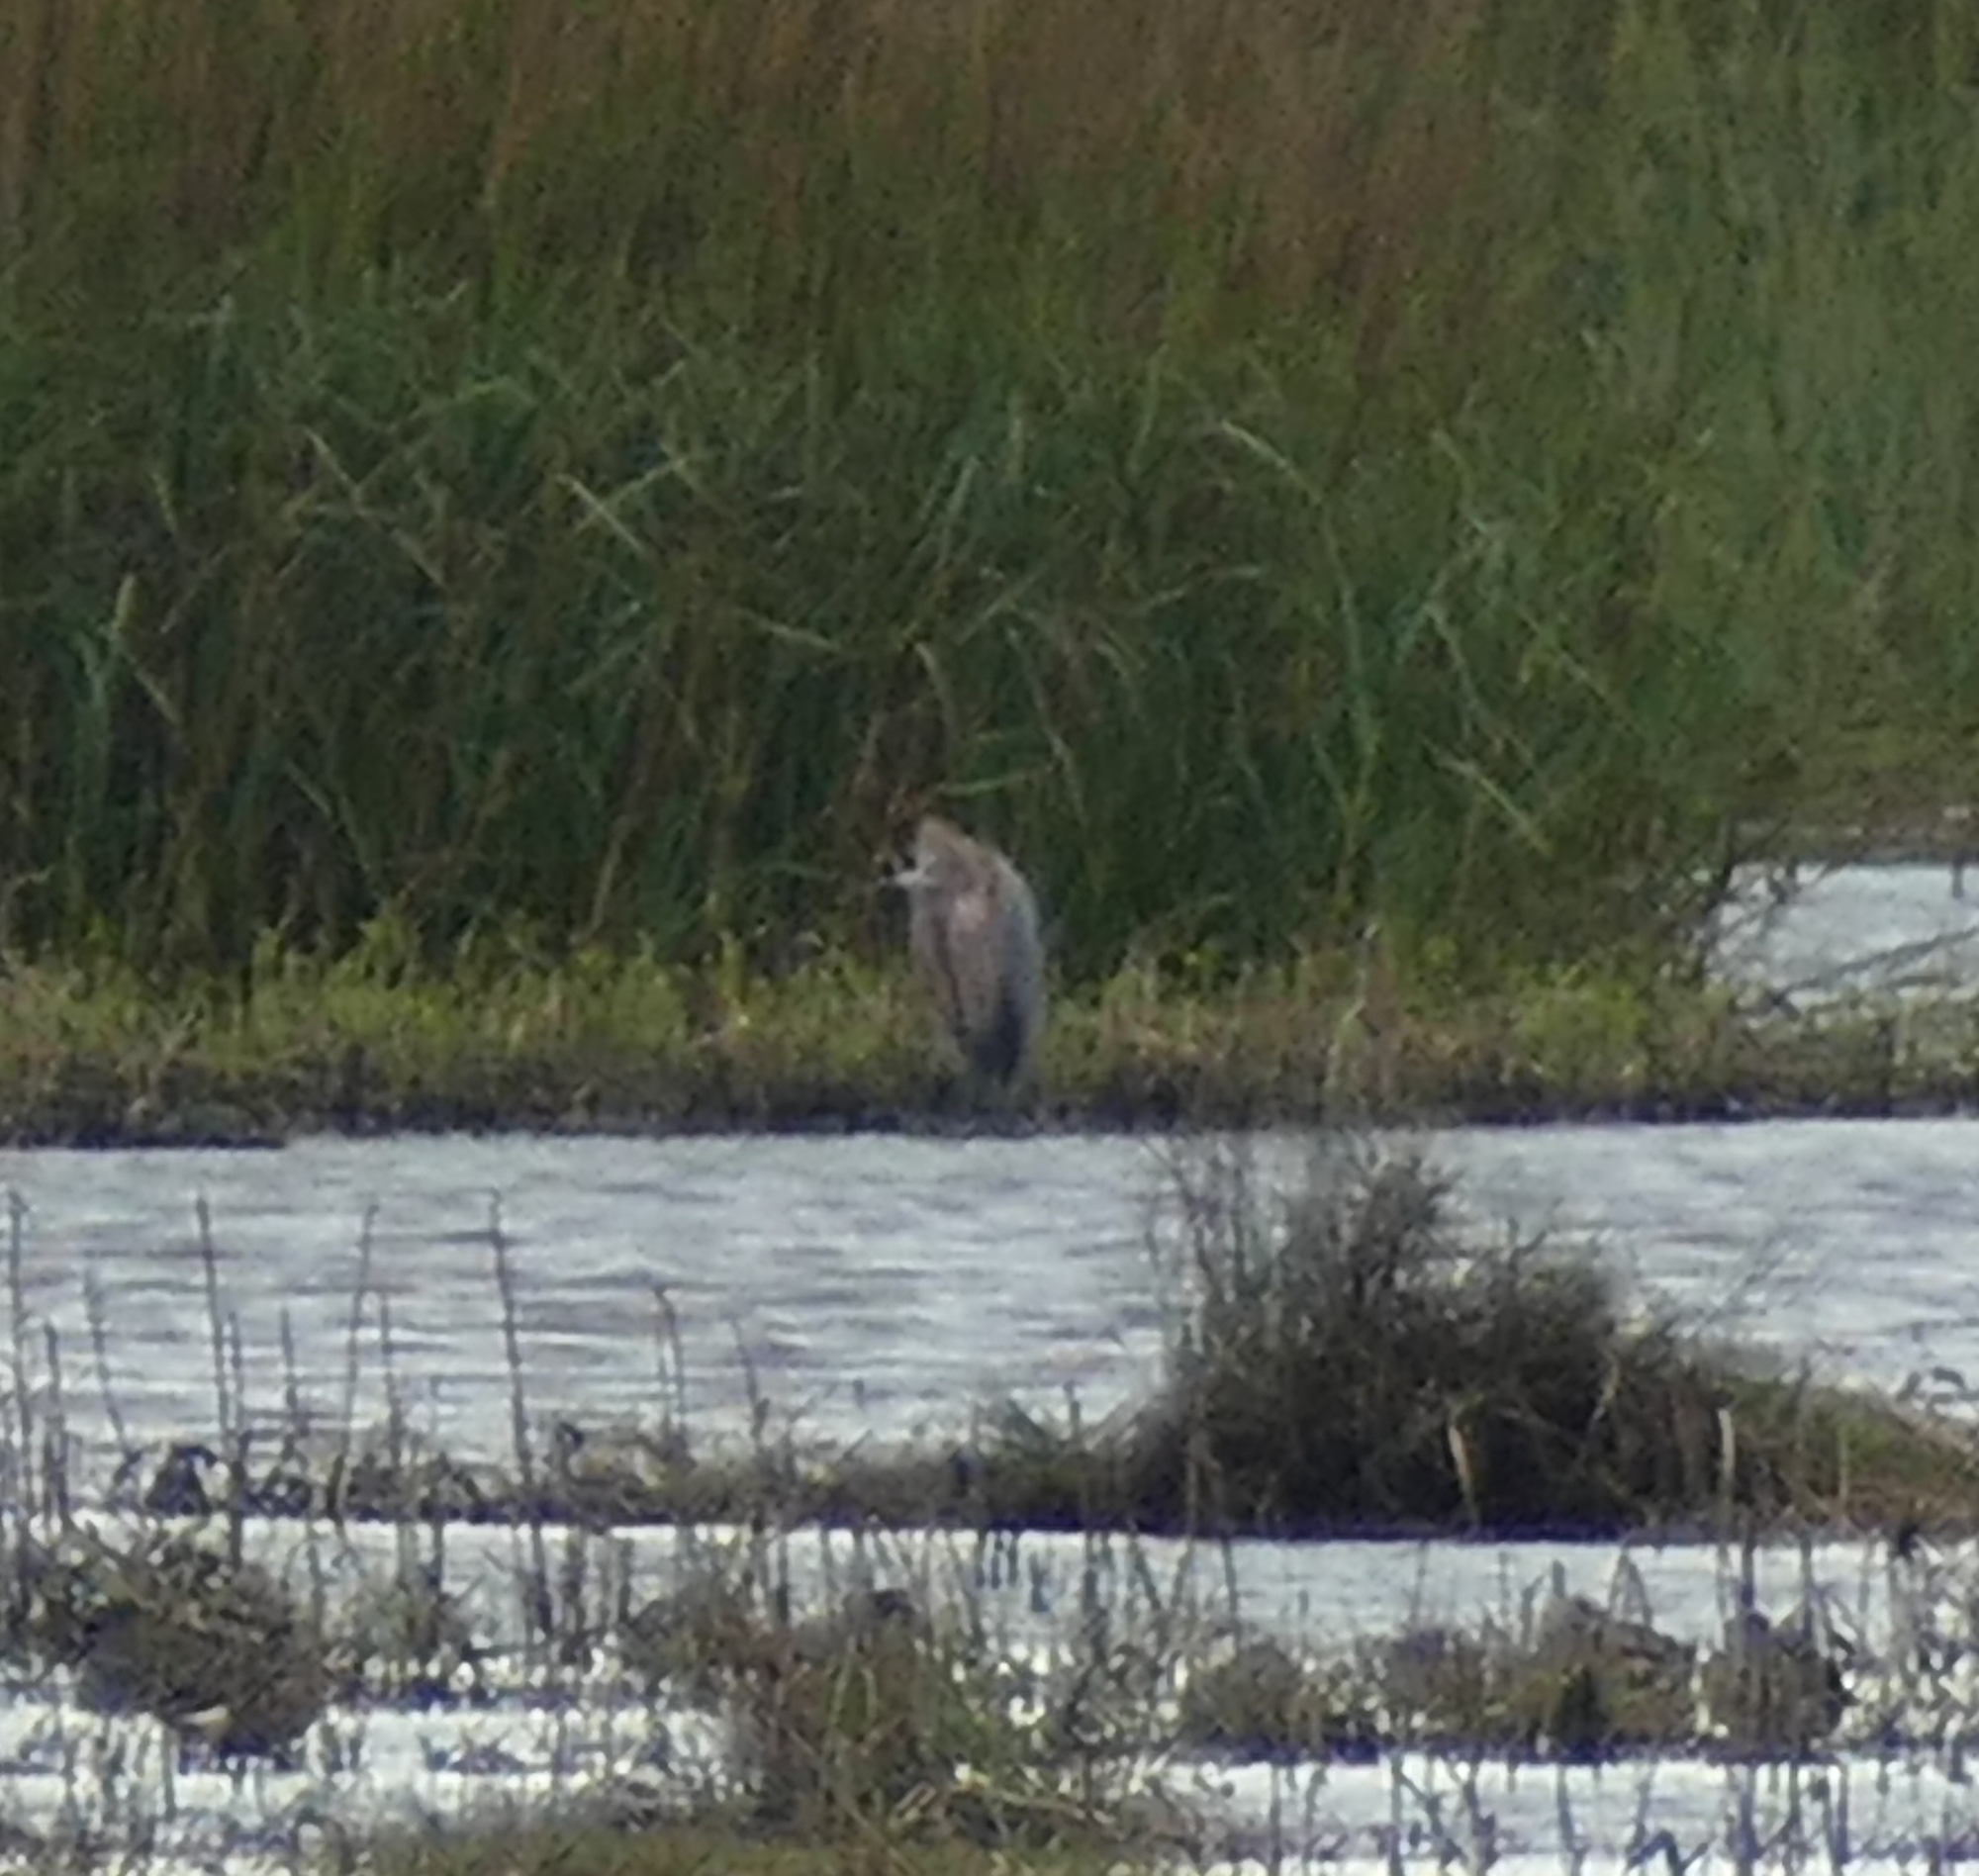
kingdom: Animalia
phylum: Chordata
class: Aves
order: Pelecaniformes
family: Ardeidae
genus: Egretta
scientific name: Egretta rufescens
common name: Reddish egret
